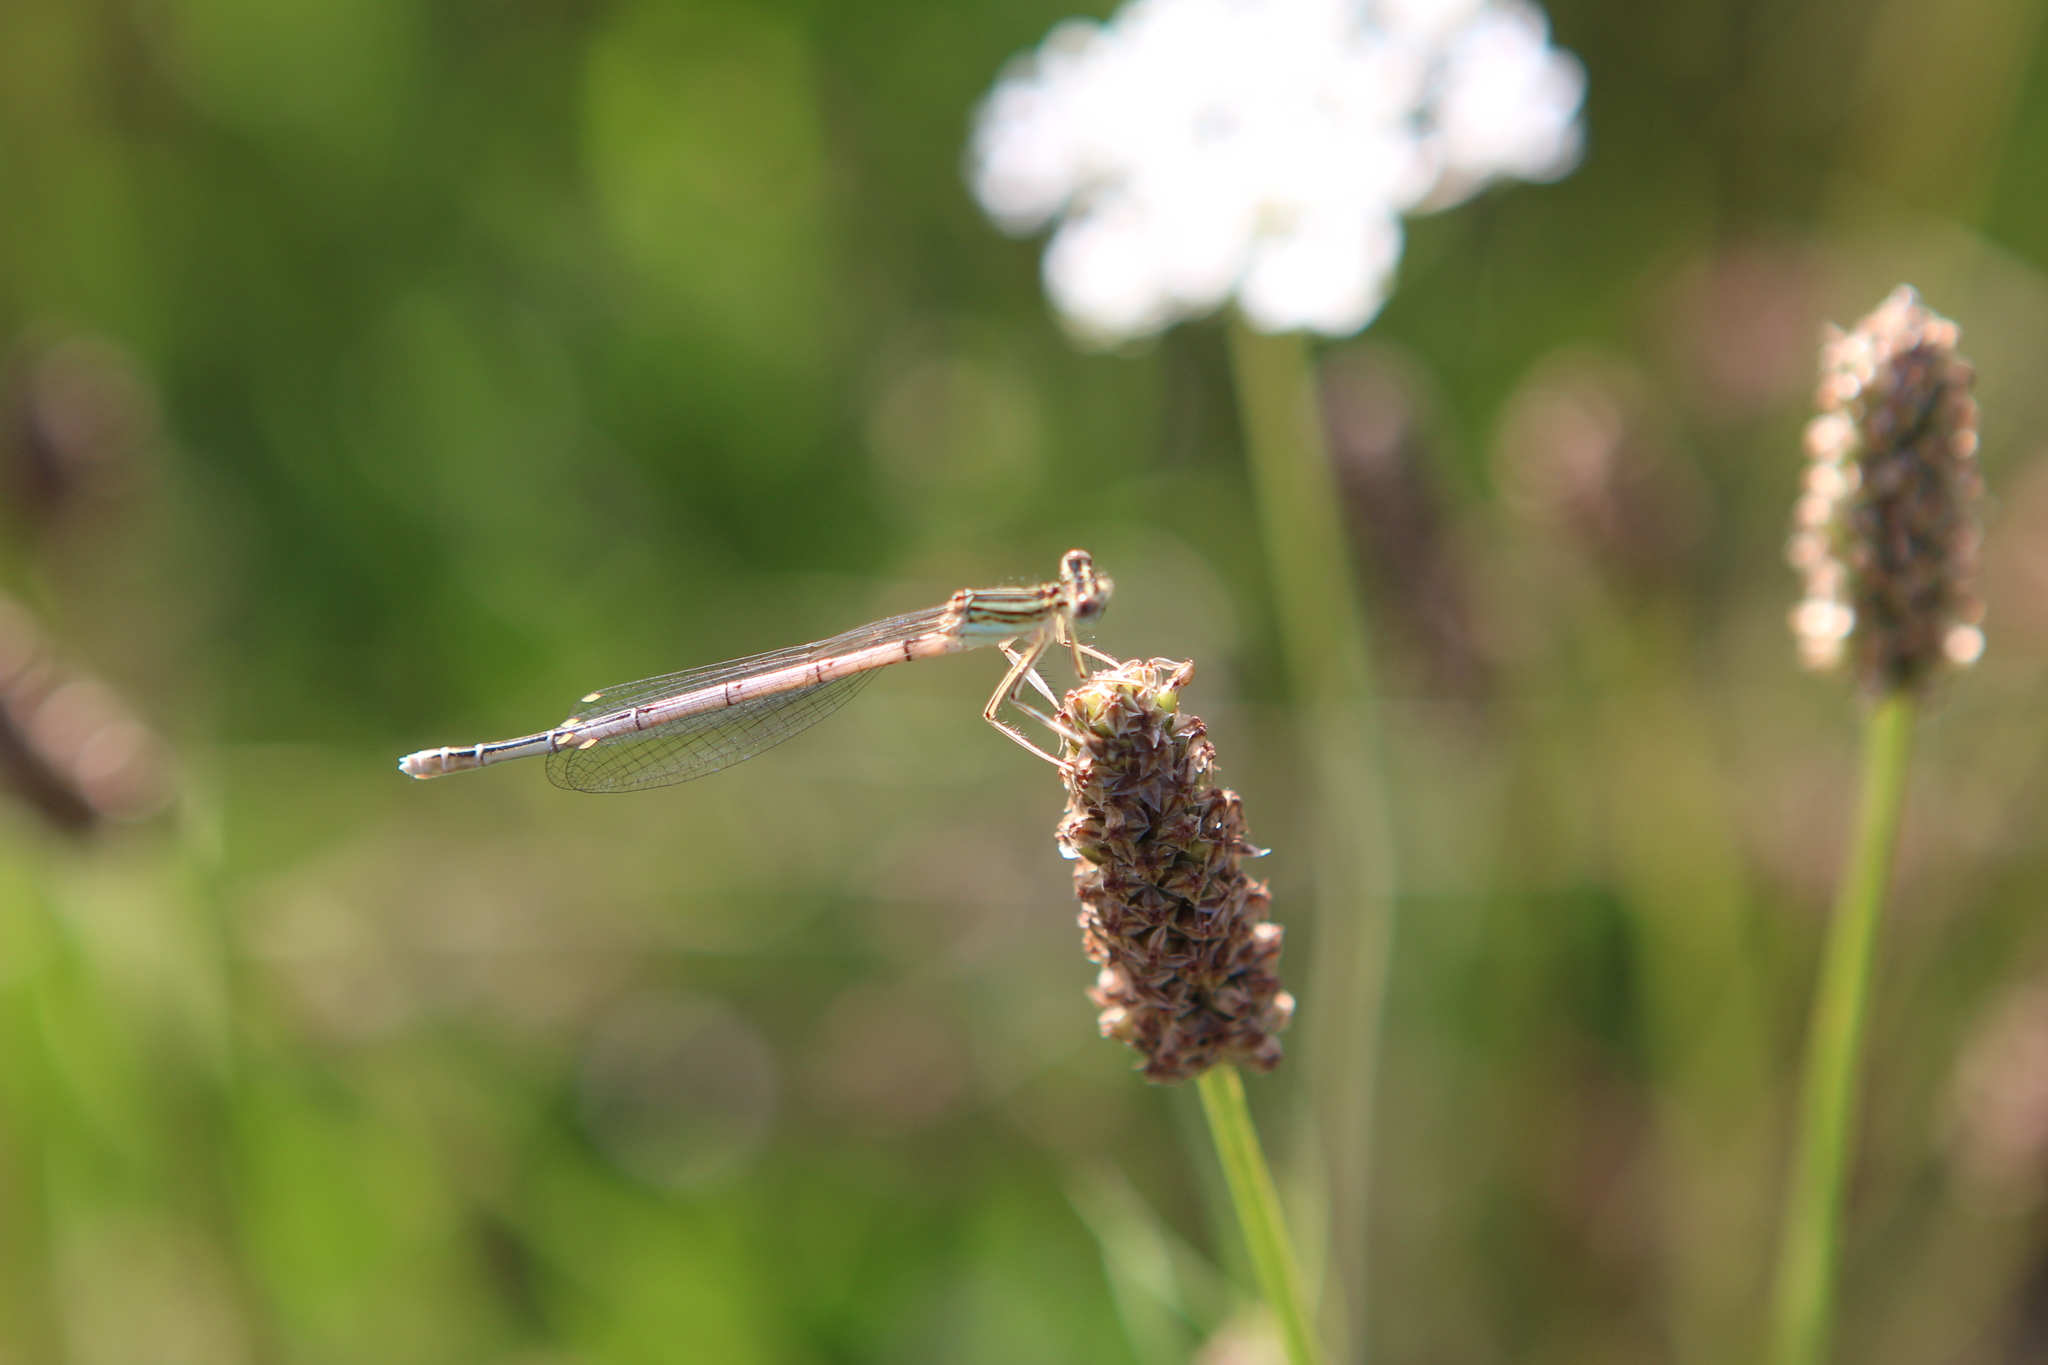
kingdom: Animalia
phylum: Arthropoda
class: Insecta
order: Odonata
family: Platycnemididae
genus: Platycnemis
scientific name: Platycnemis pennipes
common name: White-legged damselfly
